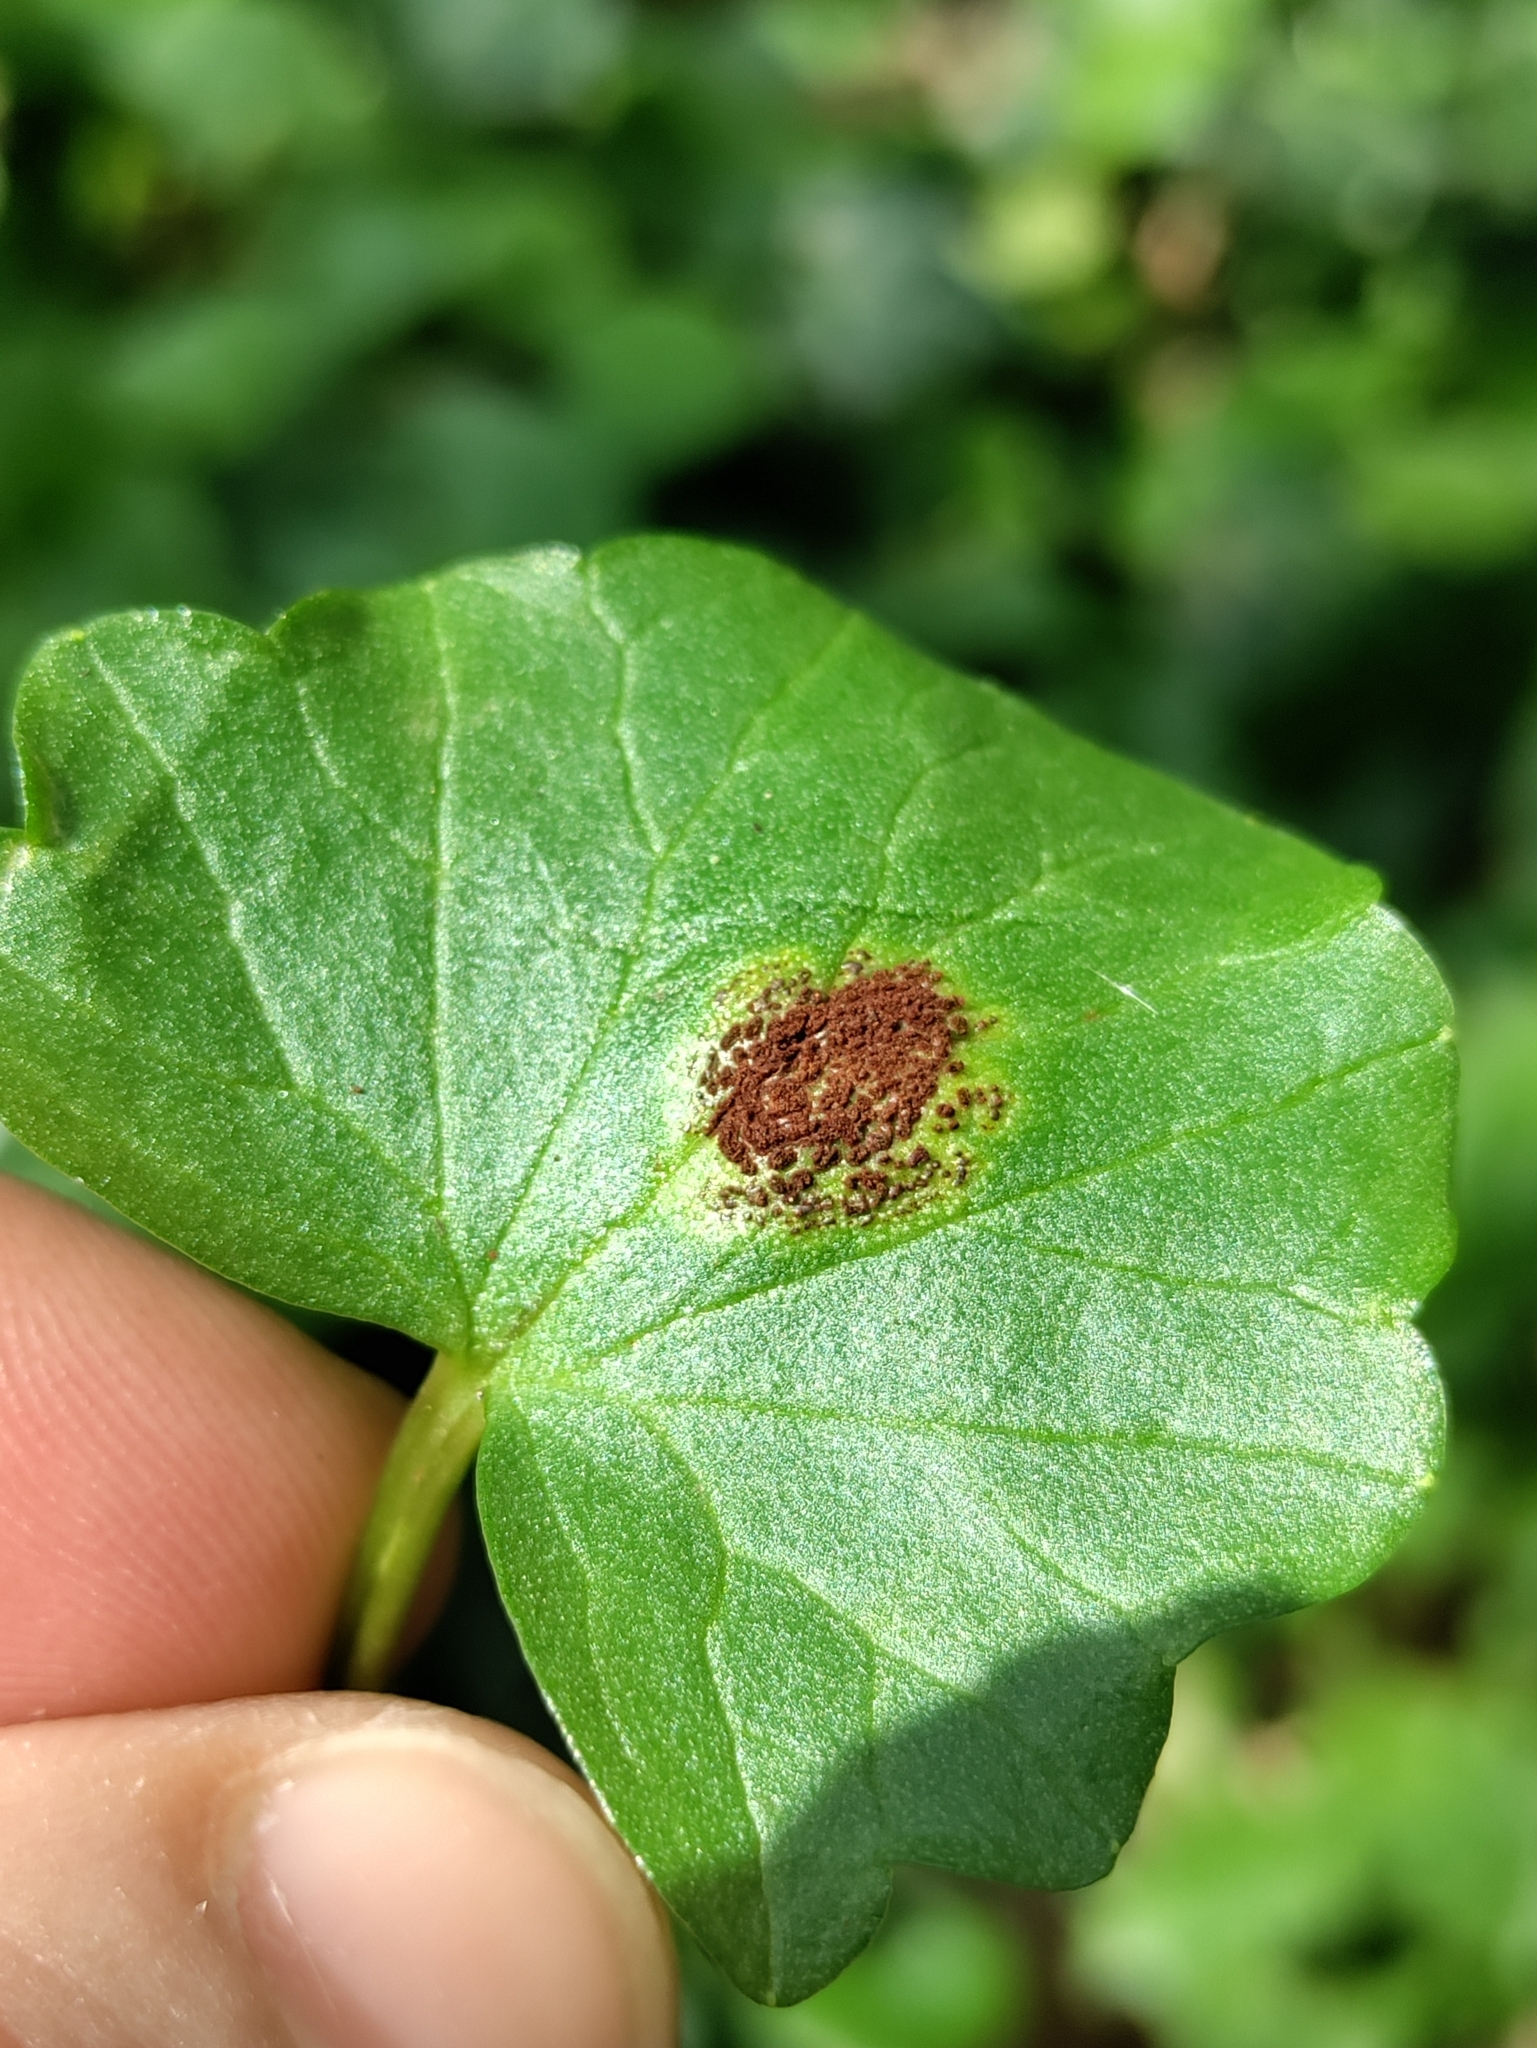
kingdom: Fungi
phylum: Basidiomycota
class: Pucciniomycetes
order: Pucciniales
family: Pucciniaceae
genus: Uromyces
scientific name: Uromyces ficariae
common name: Bitter chocolate rust
